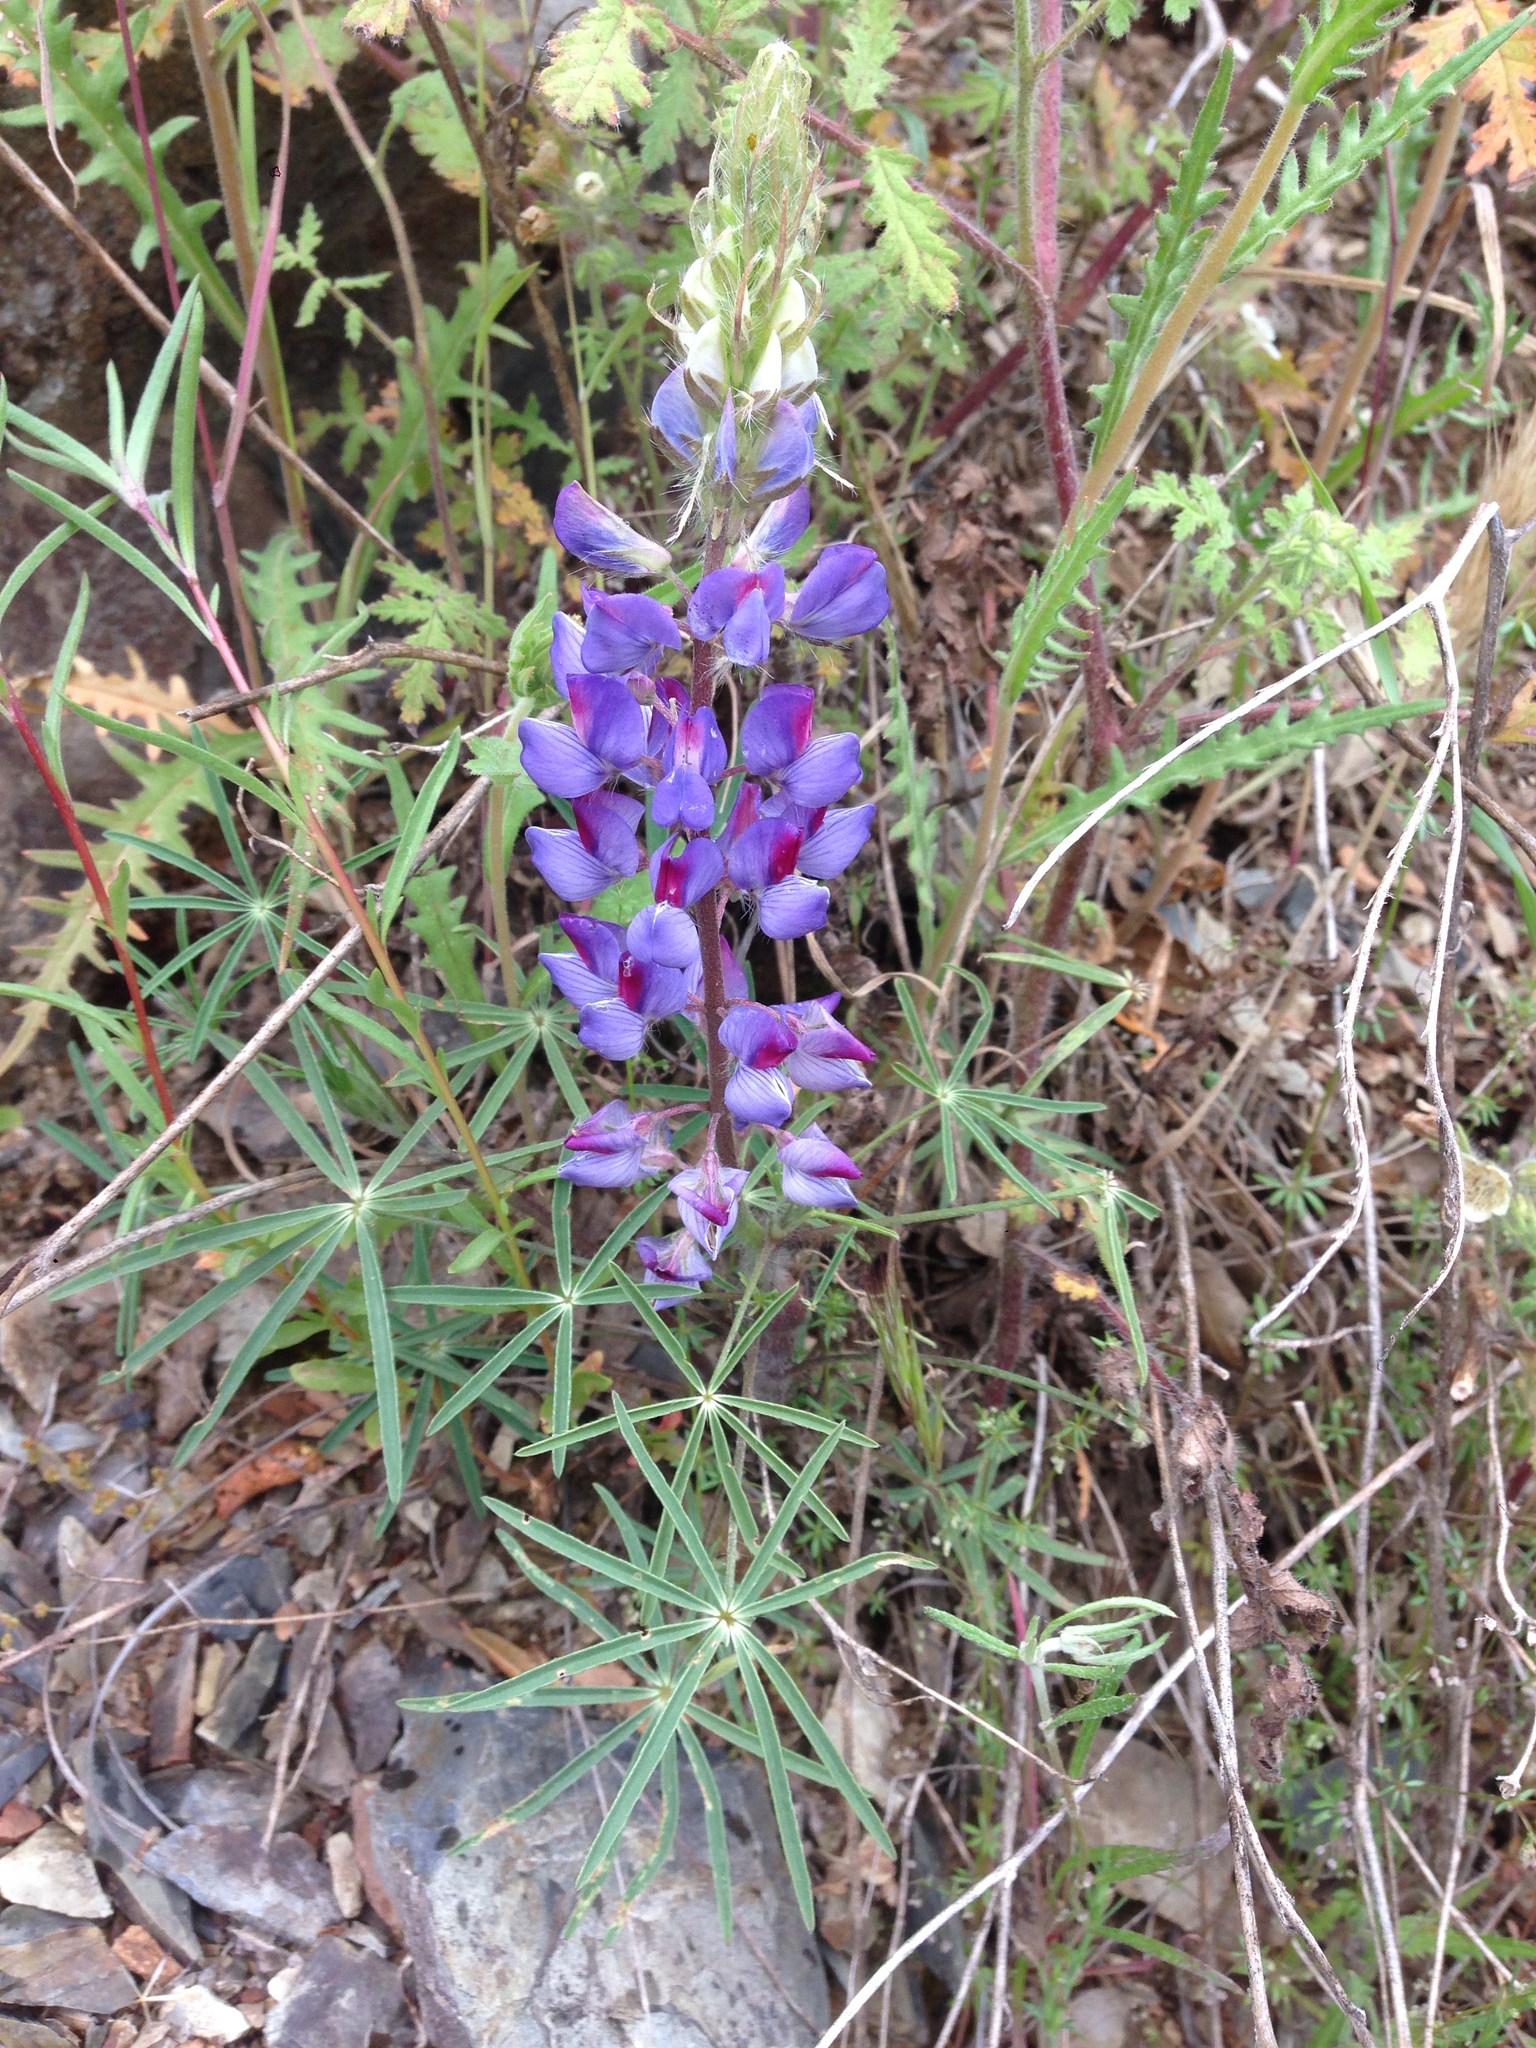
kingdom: Plantae
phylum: Tracheophyta
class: Magnoliopsida
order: Fabales
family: Fabaceae
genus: Lupinus
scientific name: Lupinus benthamii
